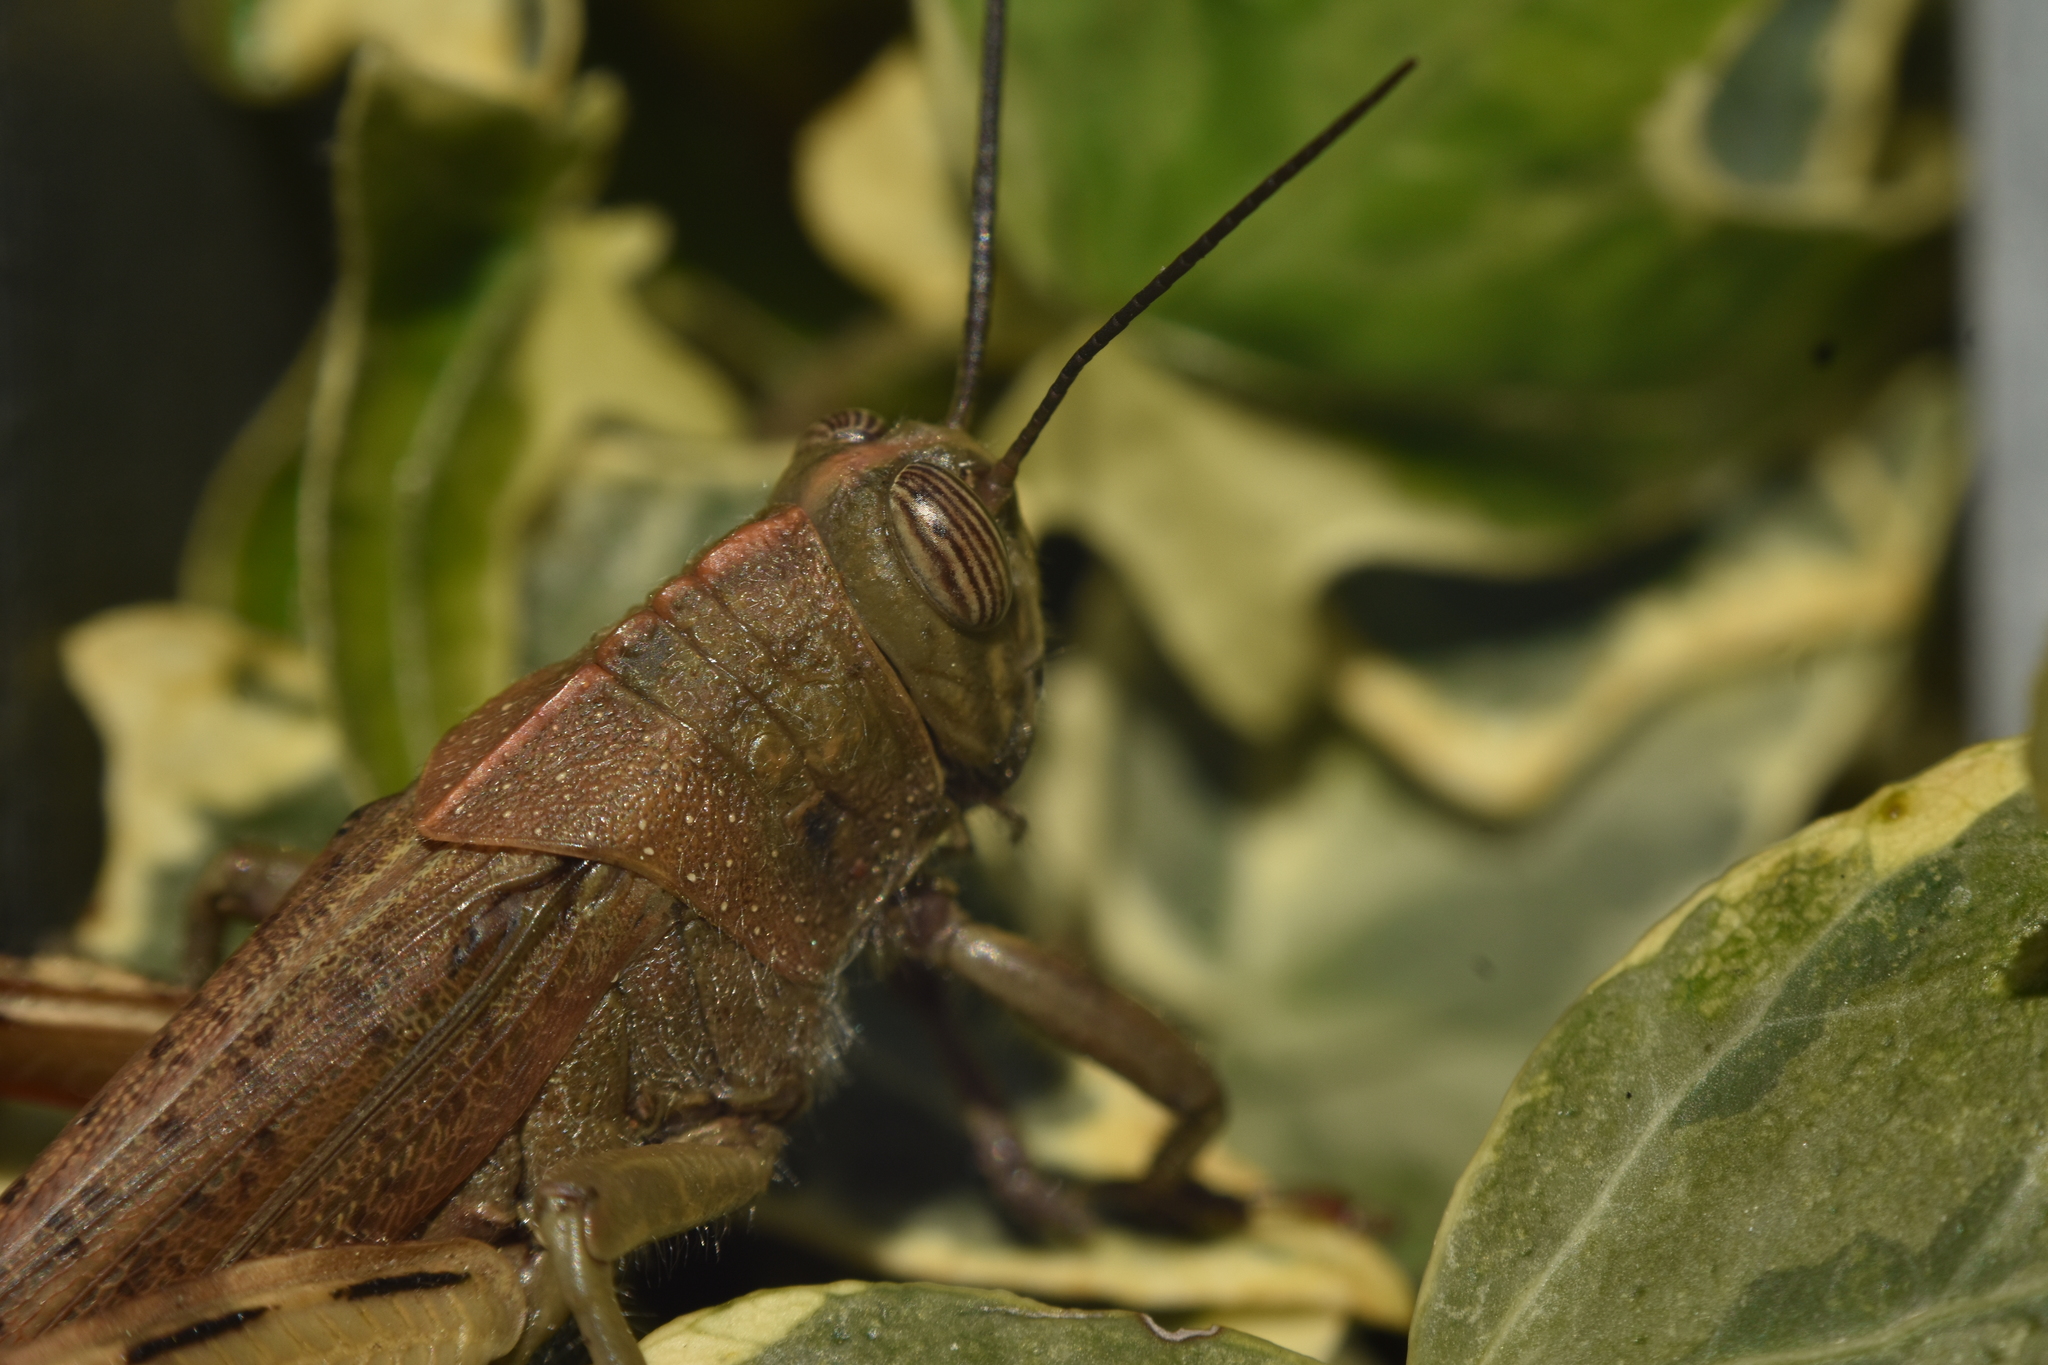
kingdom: Animalia
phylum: Arthropoda
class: Insecta
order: Orthoptera
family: Acrididae
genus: Anacridium
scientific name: Anacridium aegyptium
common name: Egyptian grasshopper
